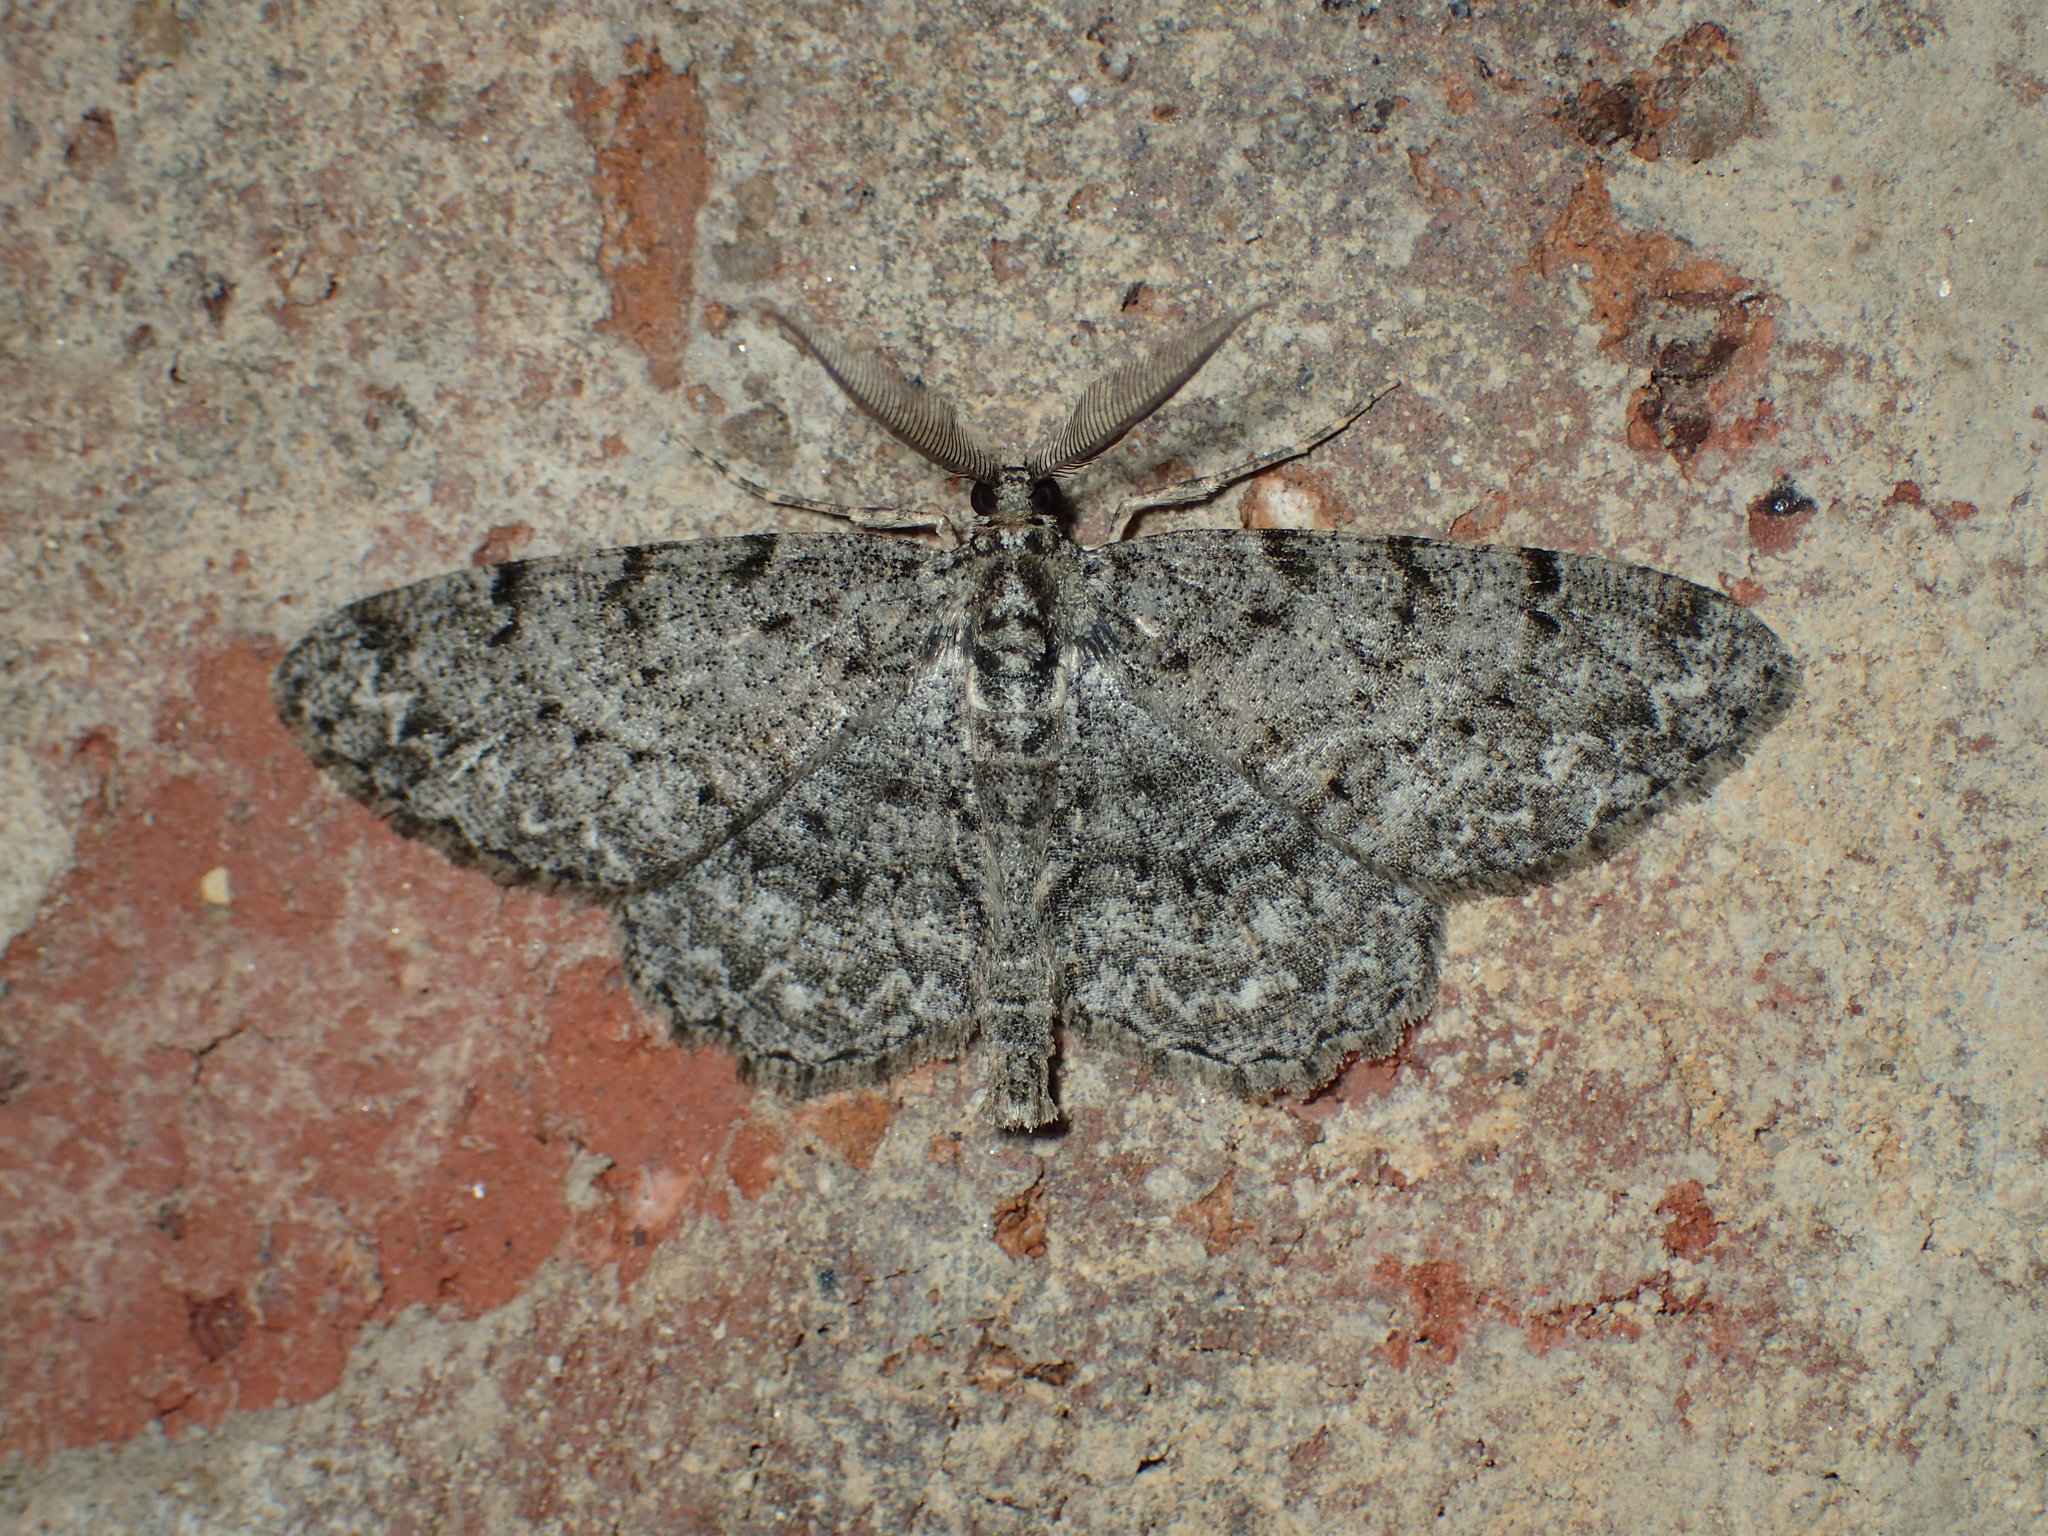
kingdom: Animalia
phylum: Arthropoda
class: Insecta
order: Lepidoptera
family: Geometridae
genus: Epimecis
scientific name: Epimecis hortaria
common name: Tulip-tree beauty
